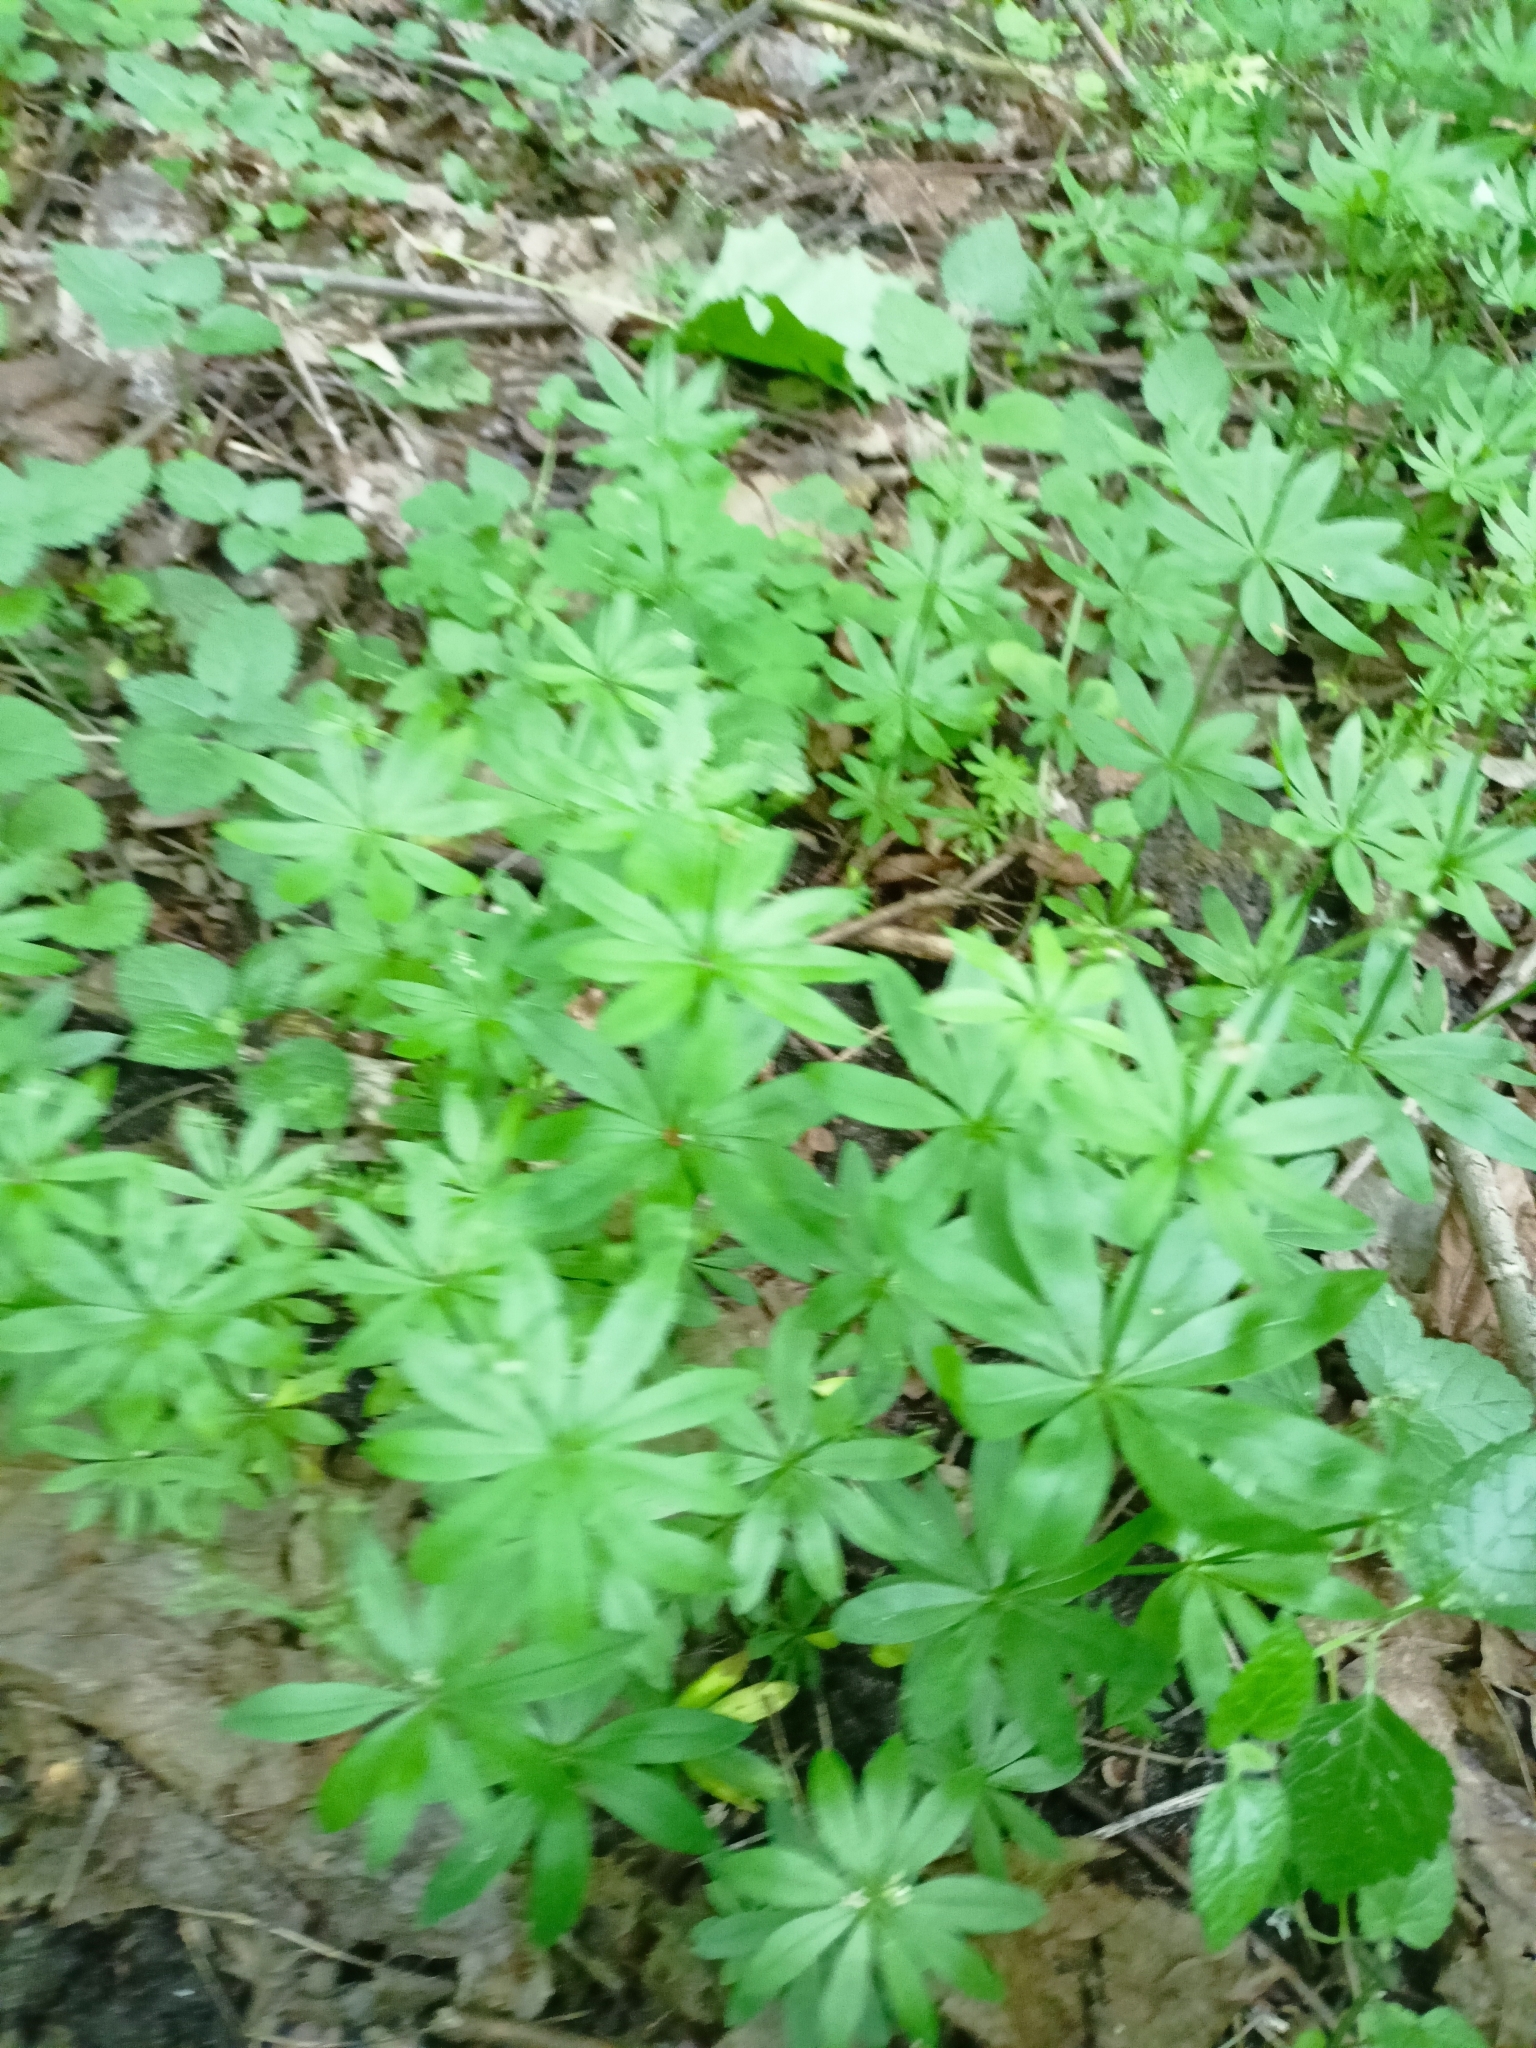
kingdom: Plantae
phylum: Tracheophyta
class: Magnoliopsida
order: Gentianales
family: Rubiaceae
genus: Galium
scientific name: Galium odoratum
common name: Sweet woodruff
